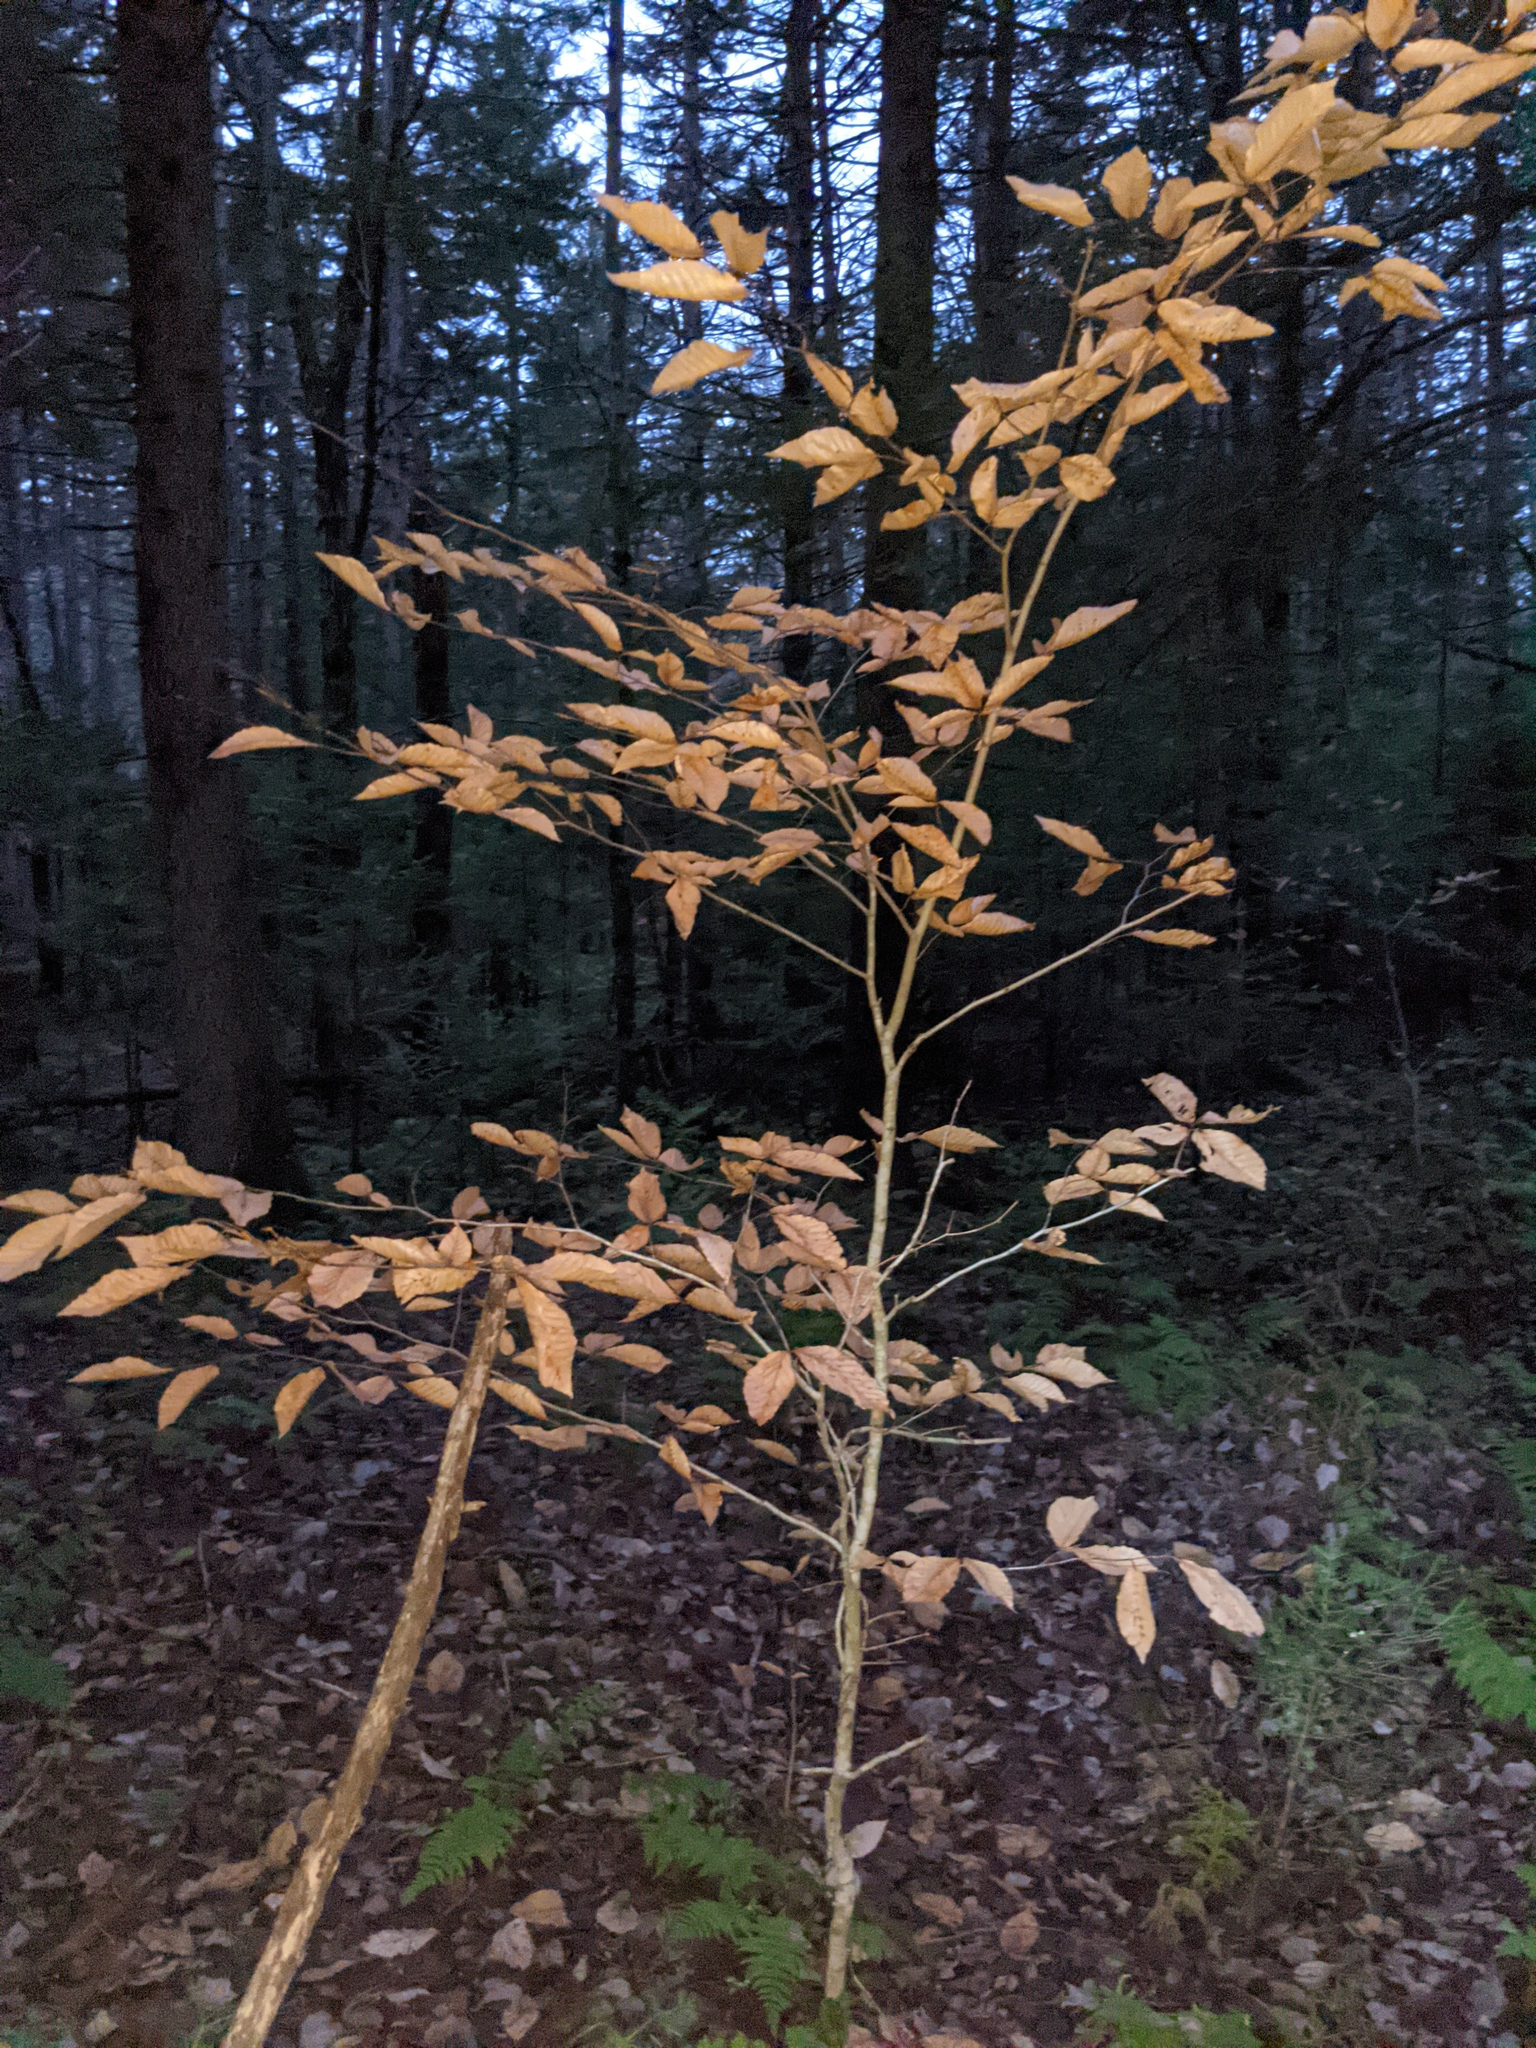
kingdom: Plantae
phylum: Tracheophyta
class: Magnoliopsida
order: Fagales
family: Fagaceae
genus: Fagus
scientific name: Fagus grandifolia
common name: American beech
